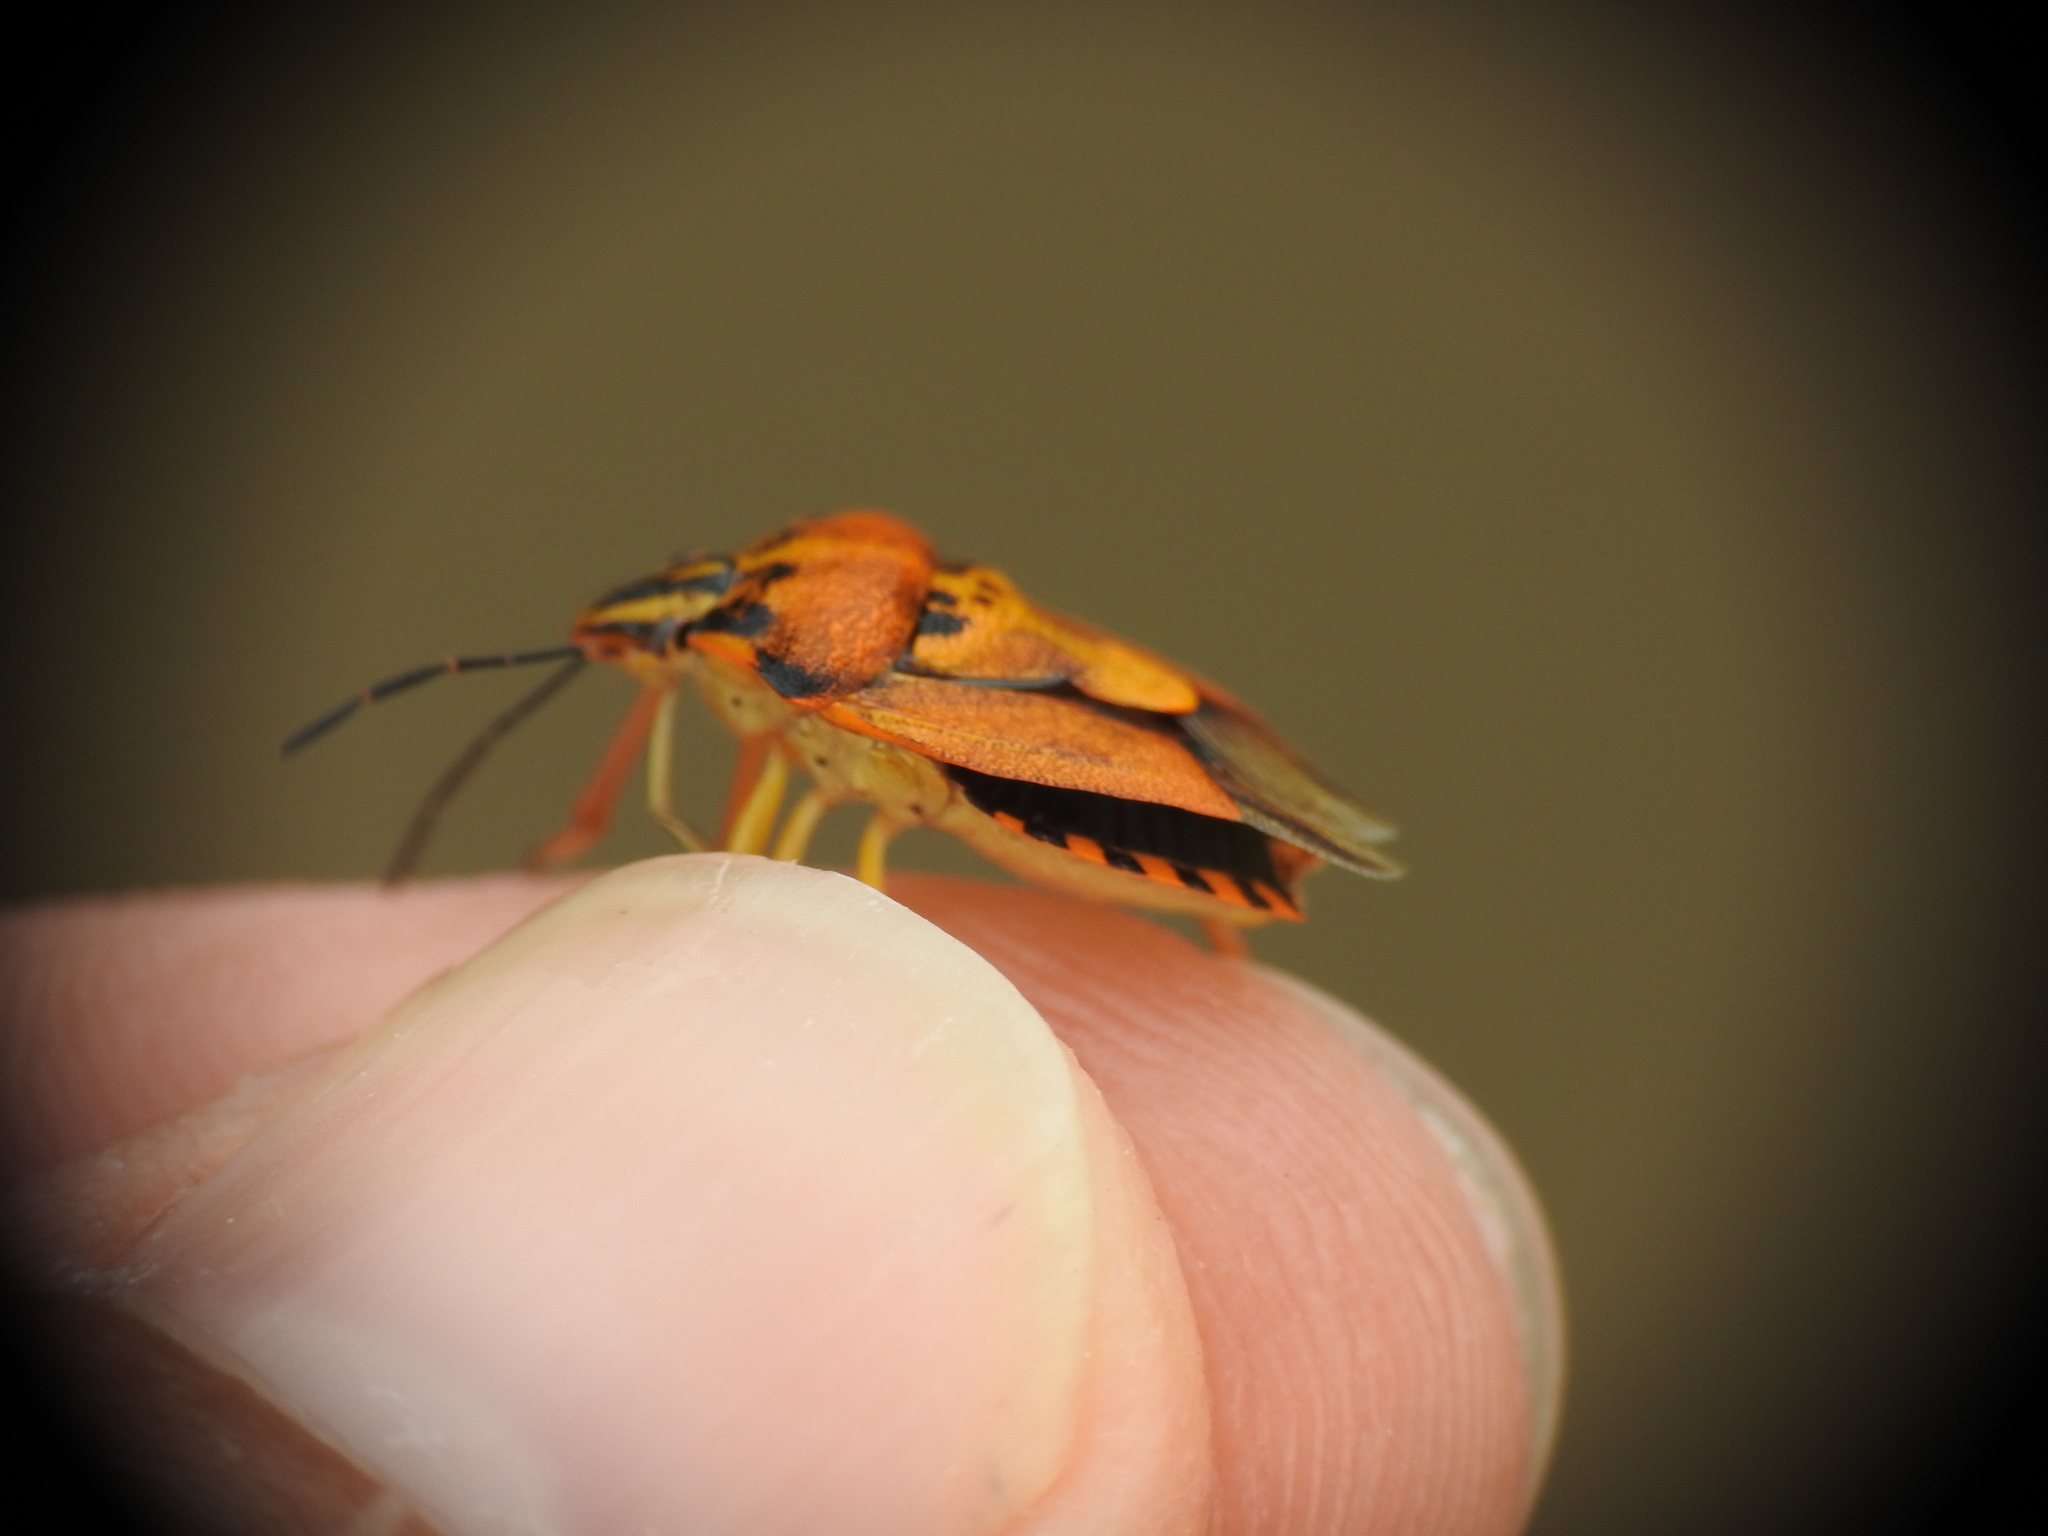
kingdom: Animalia
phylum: Arthropoda
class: Insecta
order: Hemiptera
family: Pentatomidae
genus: Carpocoris
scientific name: Carpocoris purpureipennis
